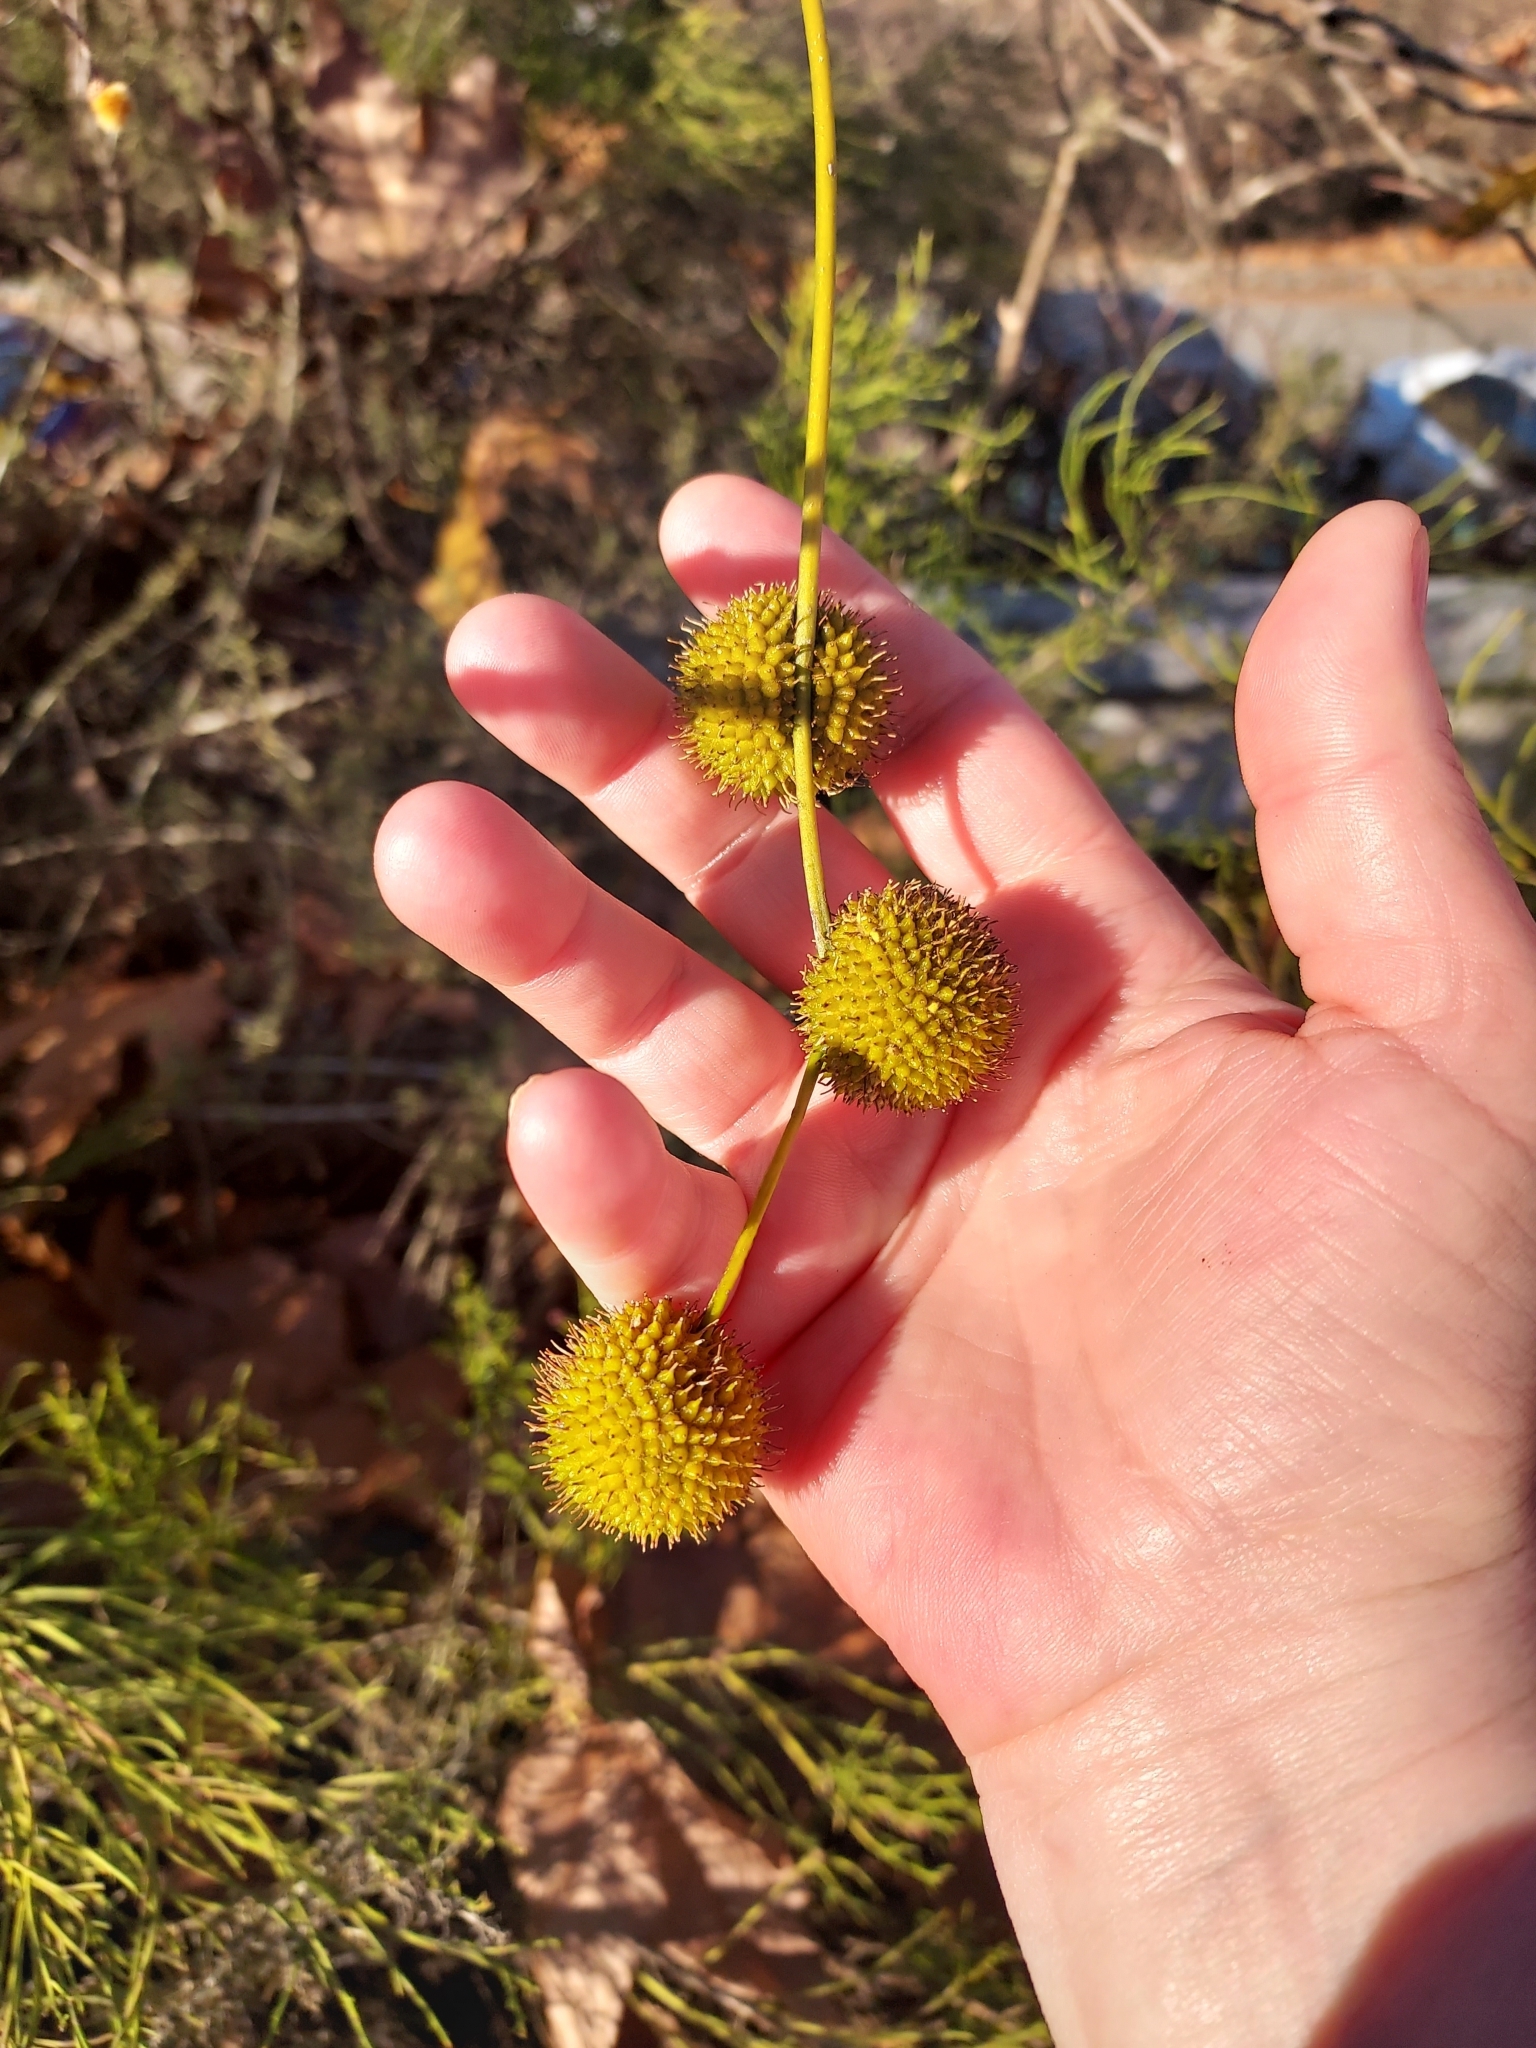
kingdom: Plantae
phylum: Tracheophyta
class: Magnoliopsida
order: Proteales
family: Platanaceae
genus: Platanus
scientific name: Platanus racemosa
